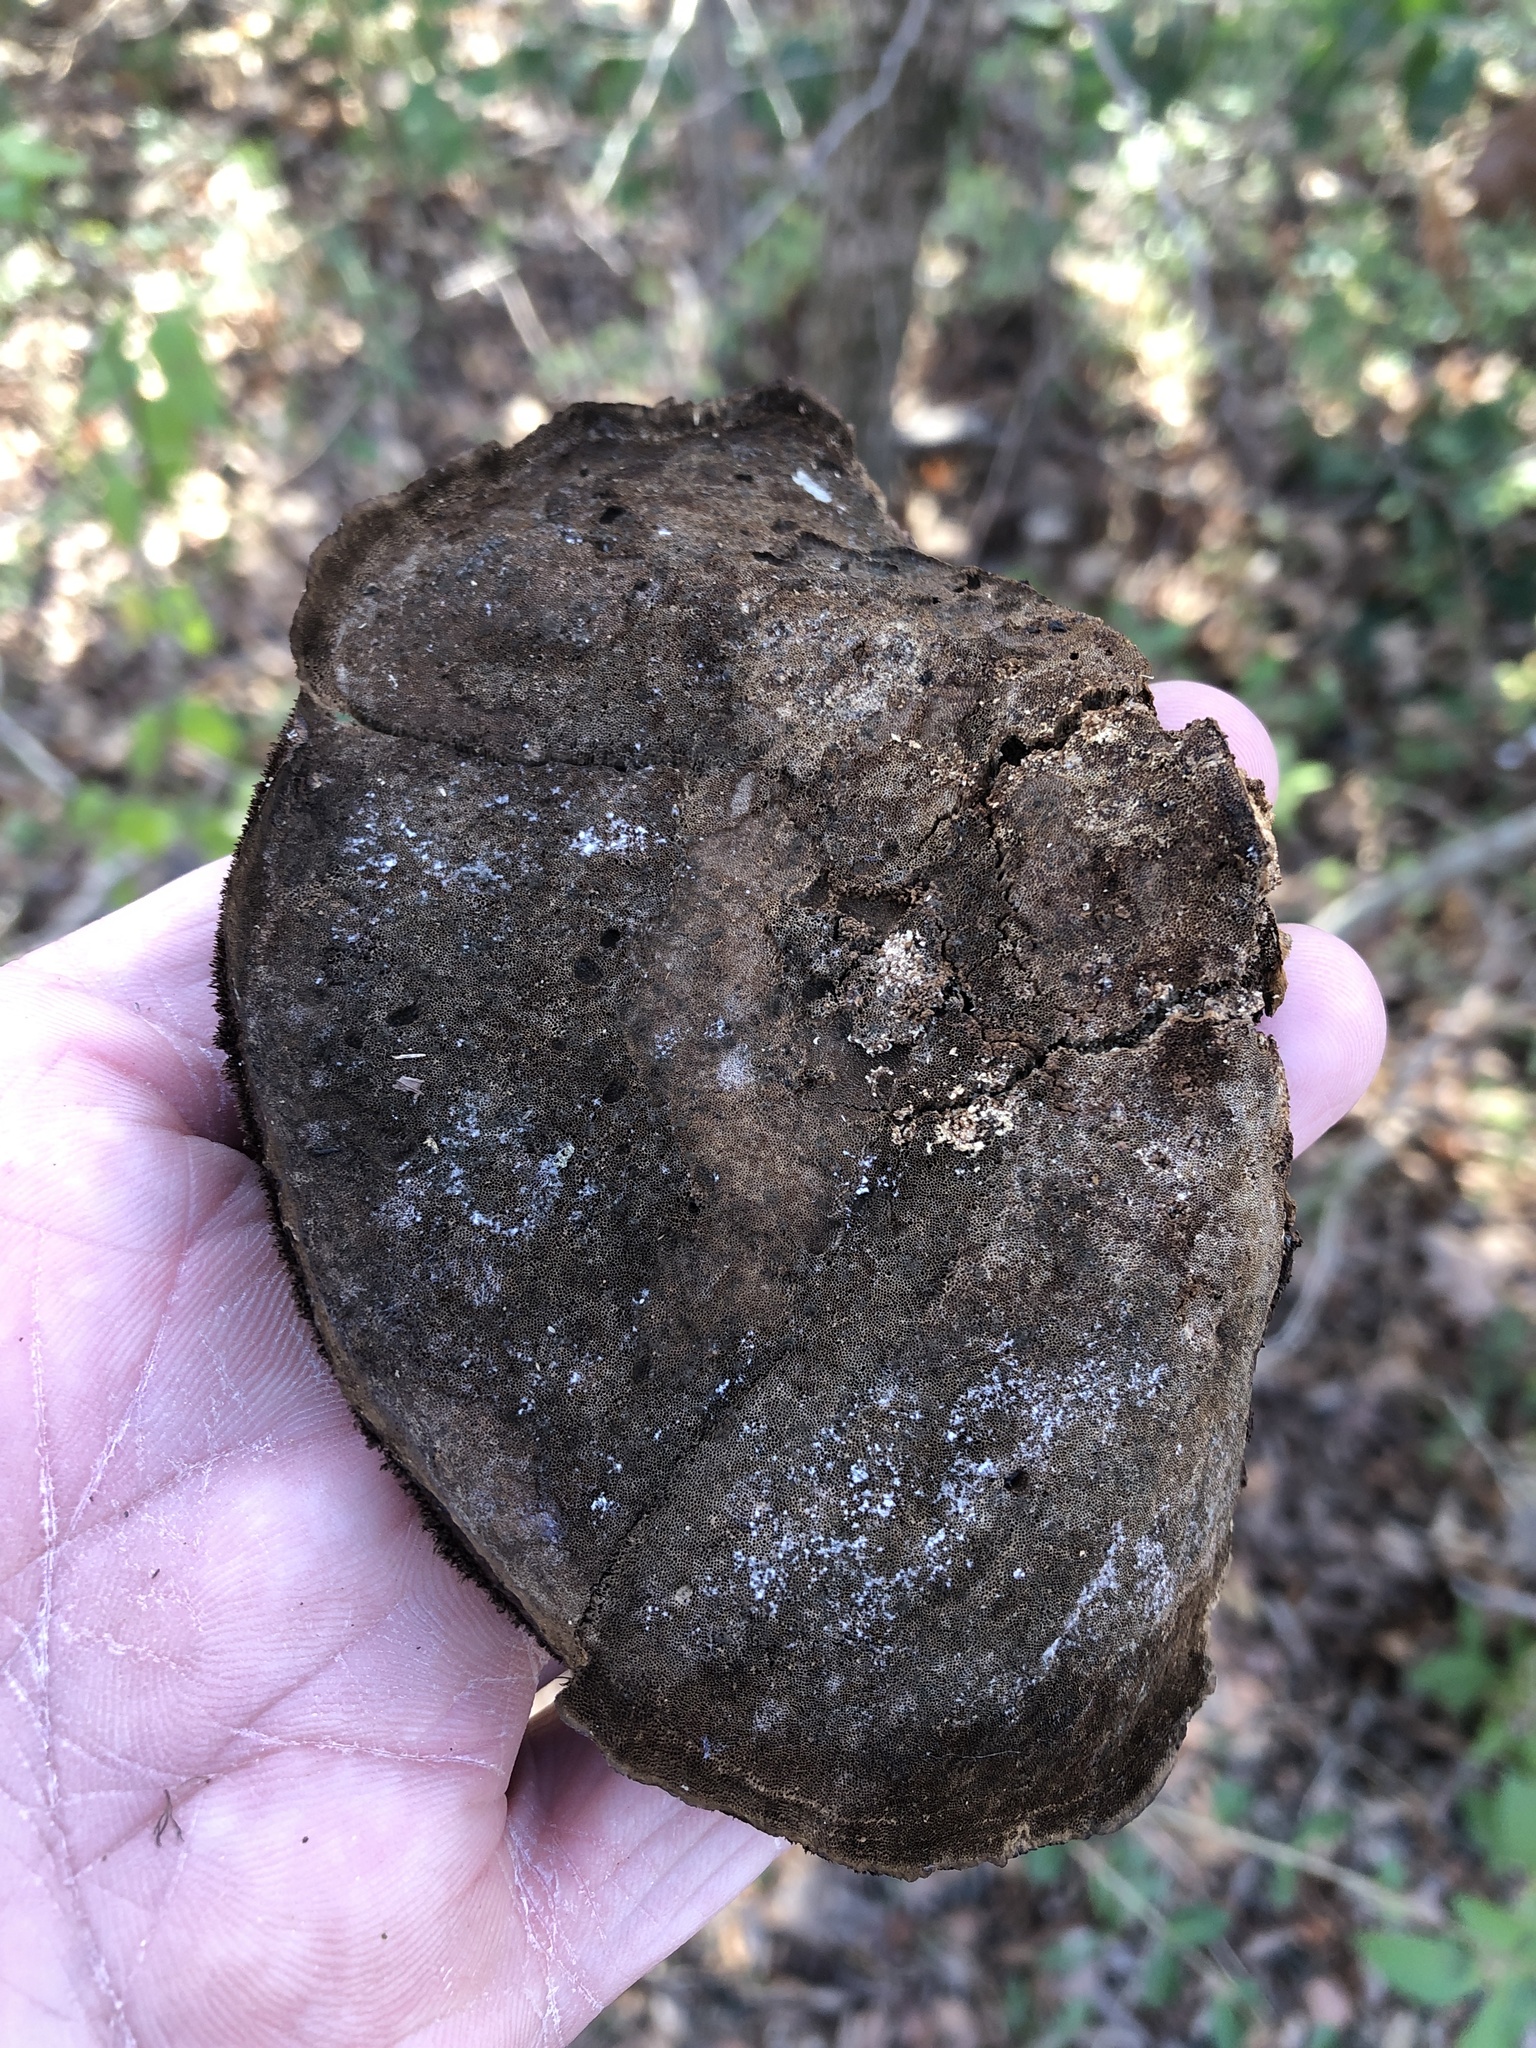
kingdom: Fungi
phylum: Basidiomycota
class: Agaricomycetes
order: Polyporales
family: Cerrenaceae
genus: Cerrena
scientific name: Cerrena hydnoides
